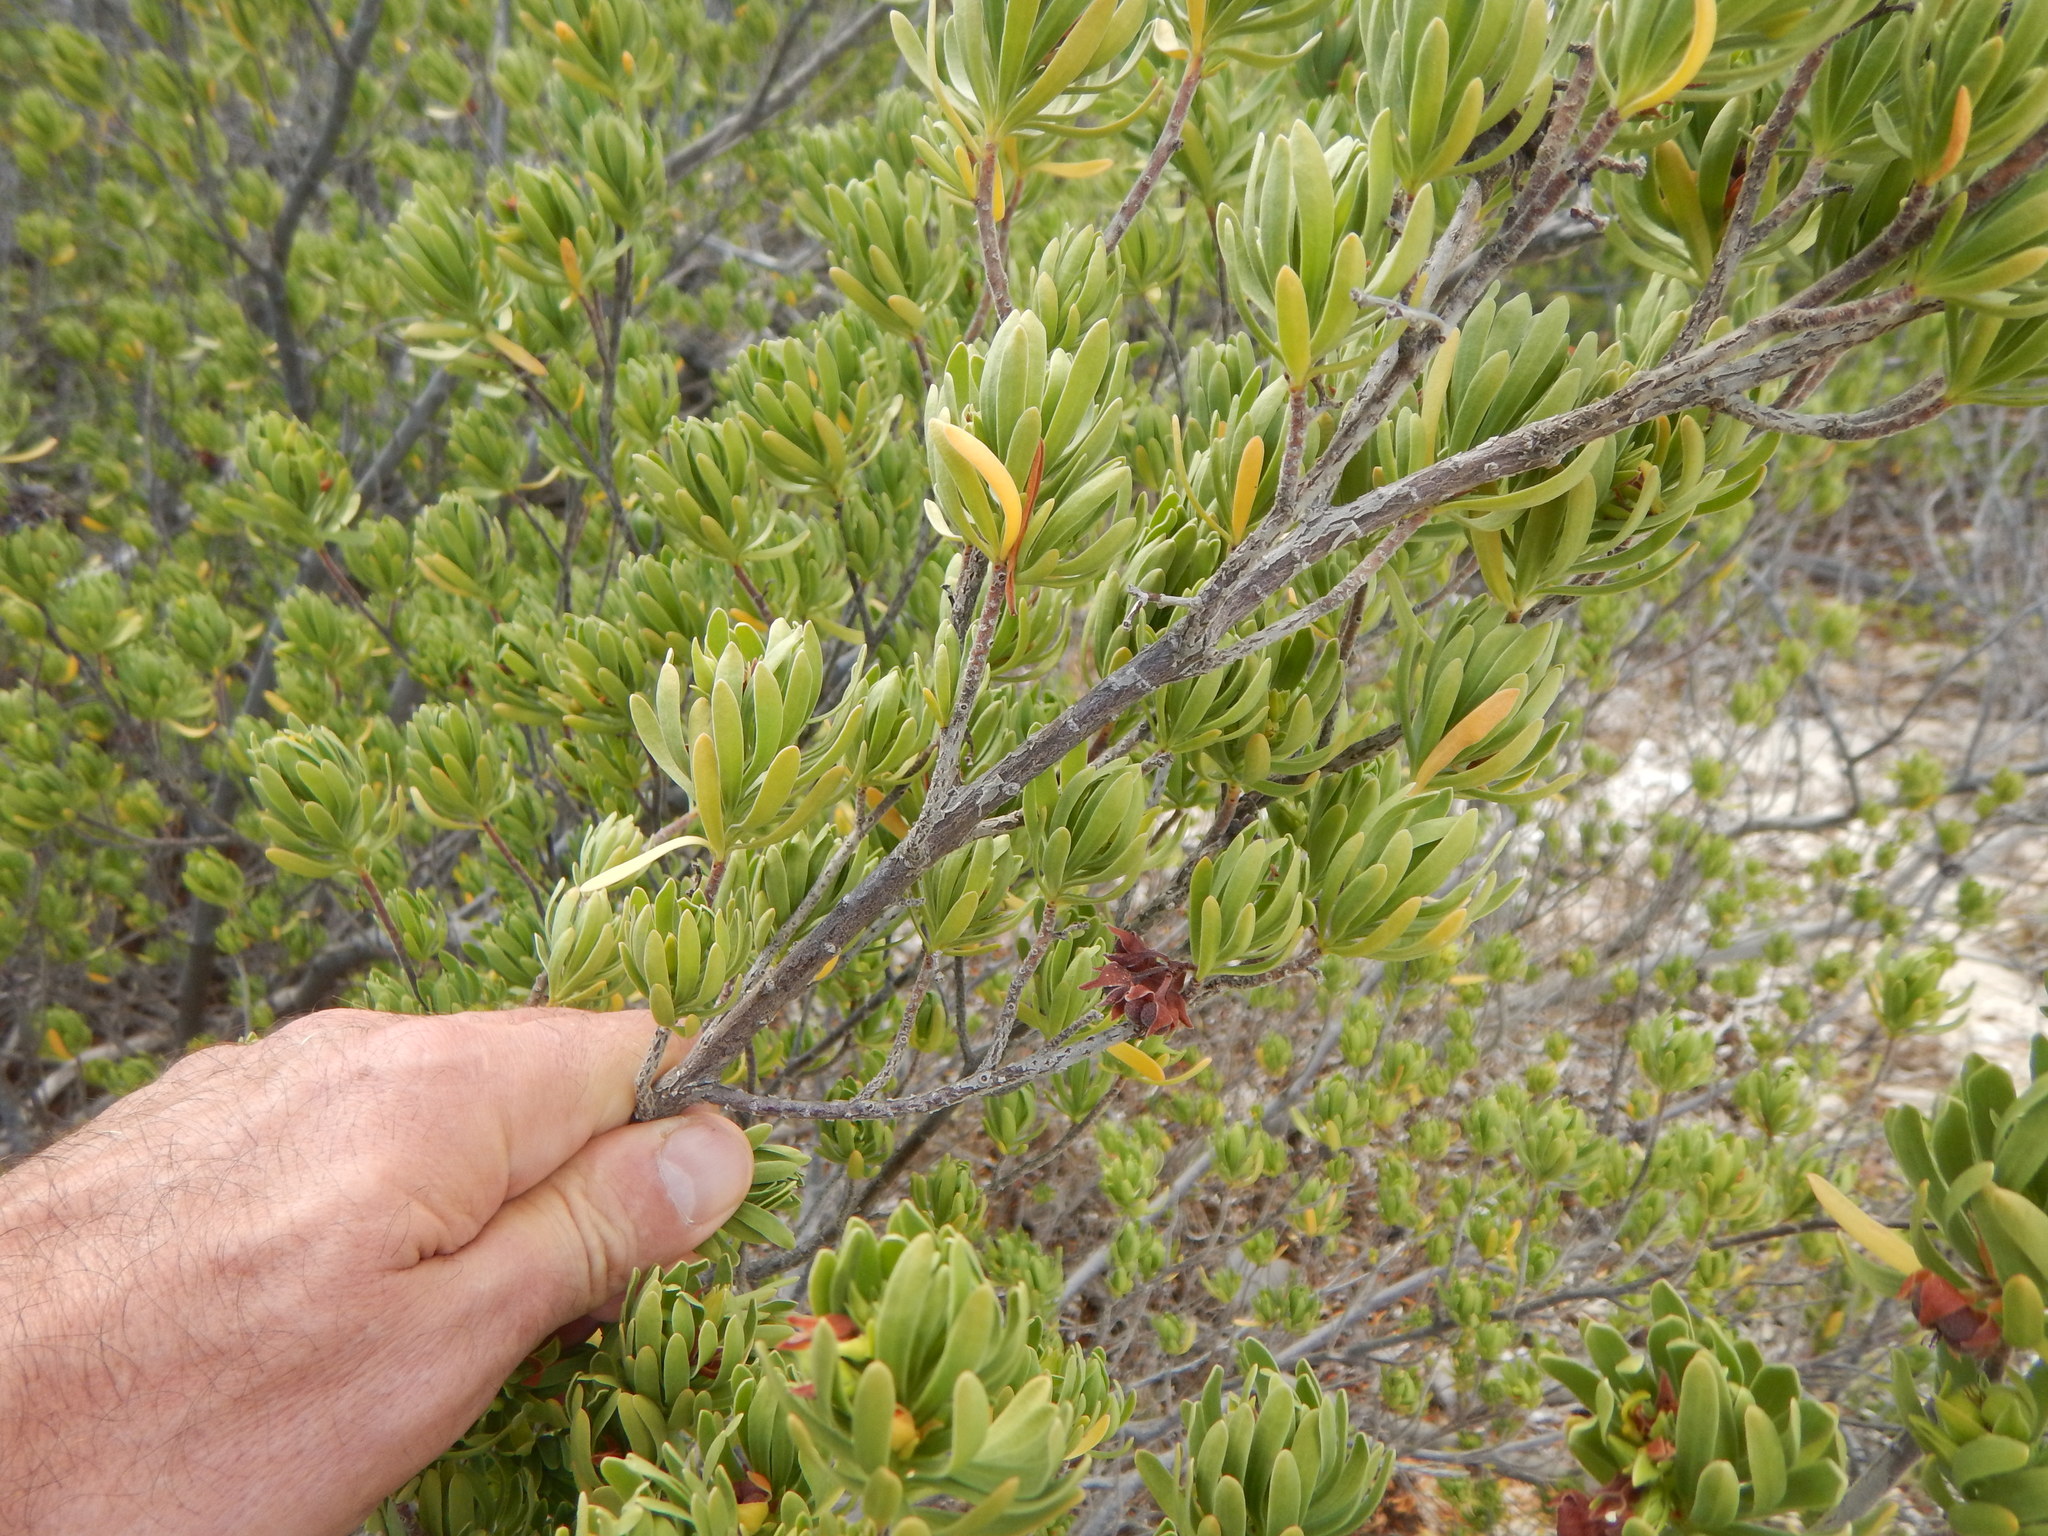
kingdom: Plantae
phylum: Tracheophyta
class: Magnoliopsida
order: Fabales
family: Surianaceae
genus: Suriana
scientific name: Suriana maritima
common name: Bay-cedar
